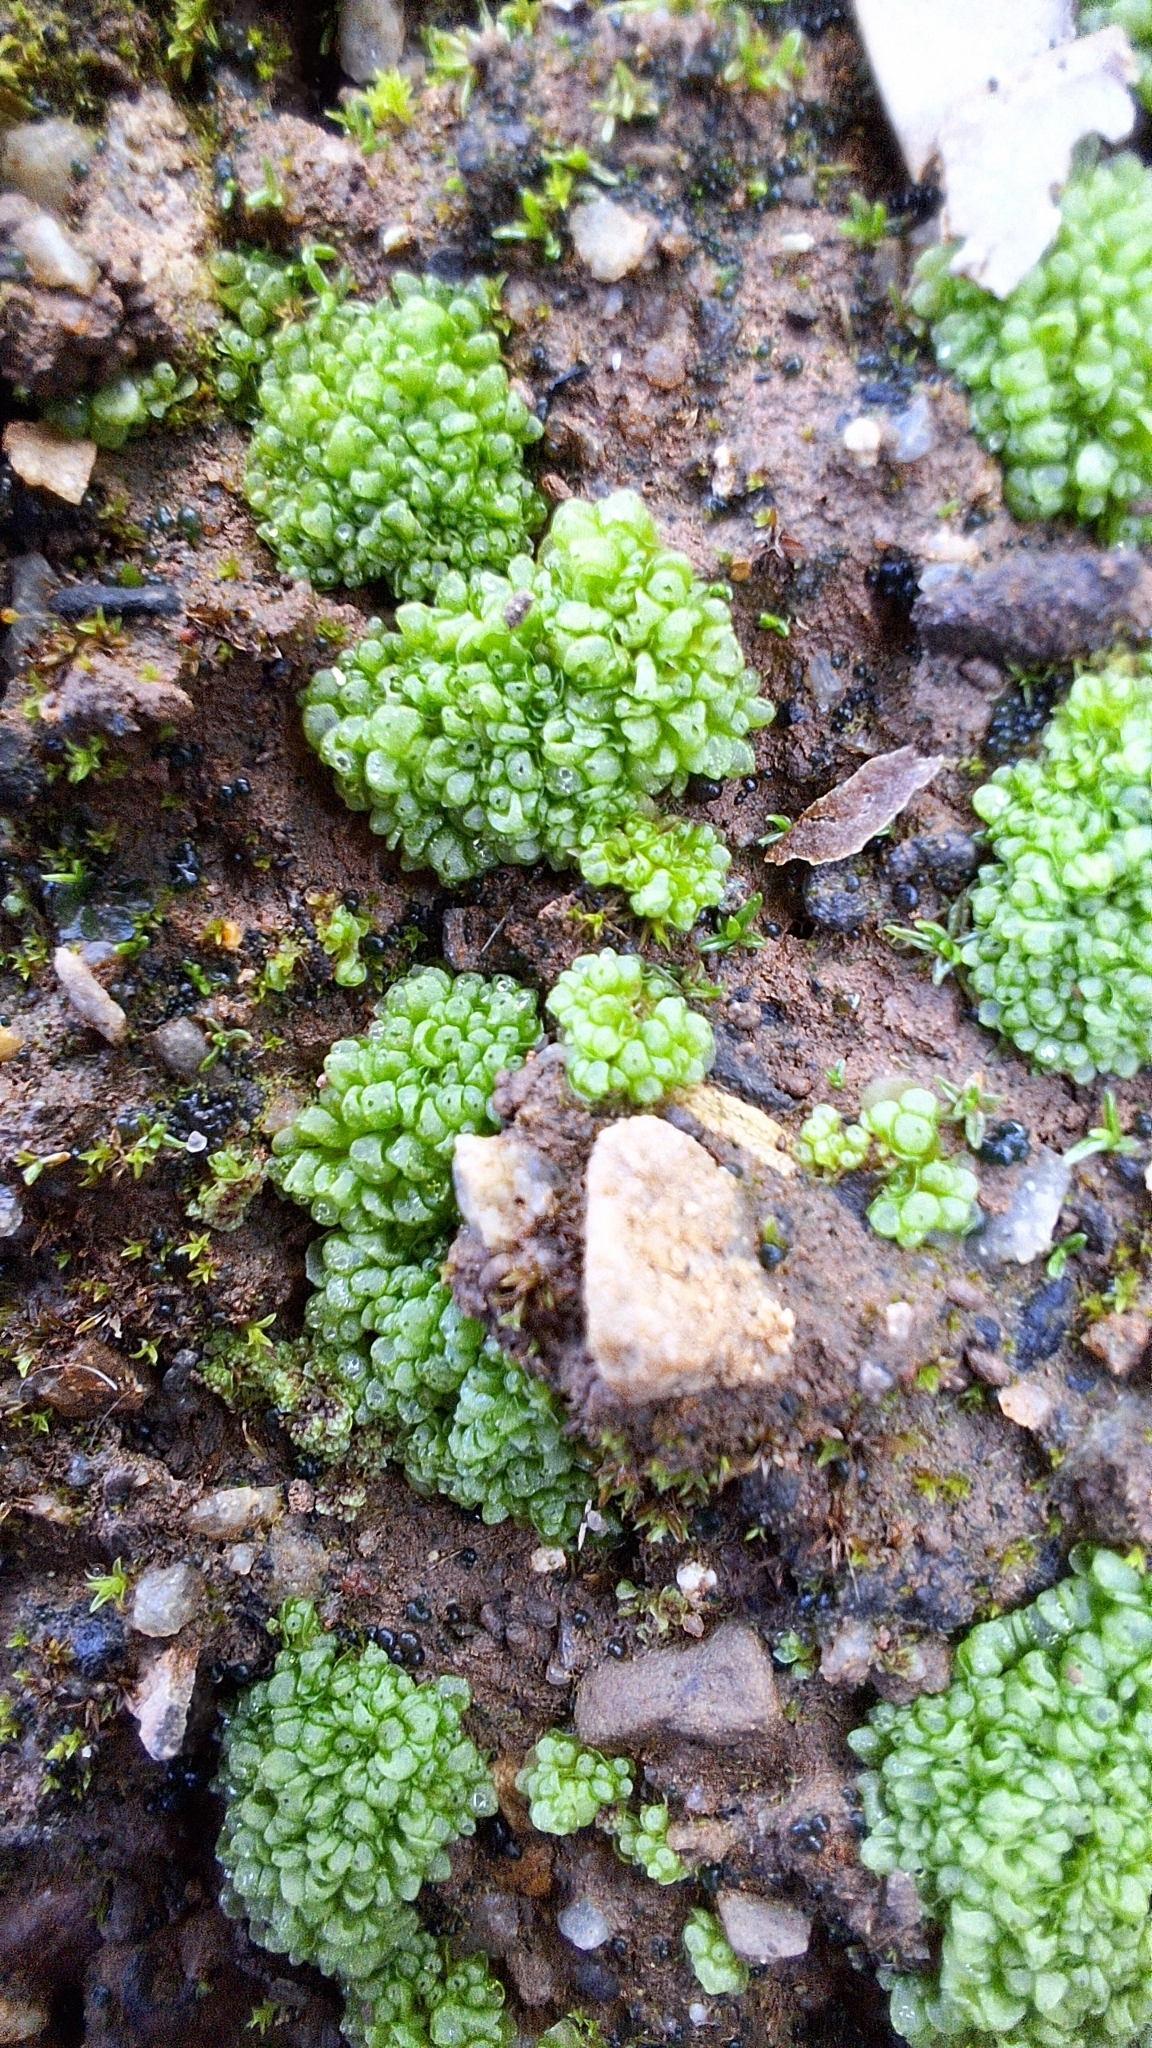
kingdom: Plantae
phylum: Marchantiophyta
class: Marchantiopsida
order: Sphaerocarpales
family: Sphaerocarpaceae
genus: Sphaerocarpos
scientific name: Sphaerocarpos texanus
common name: Texas balloonwort
